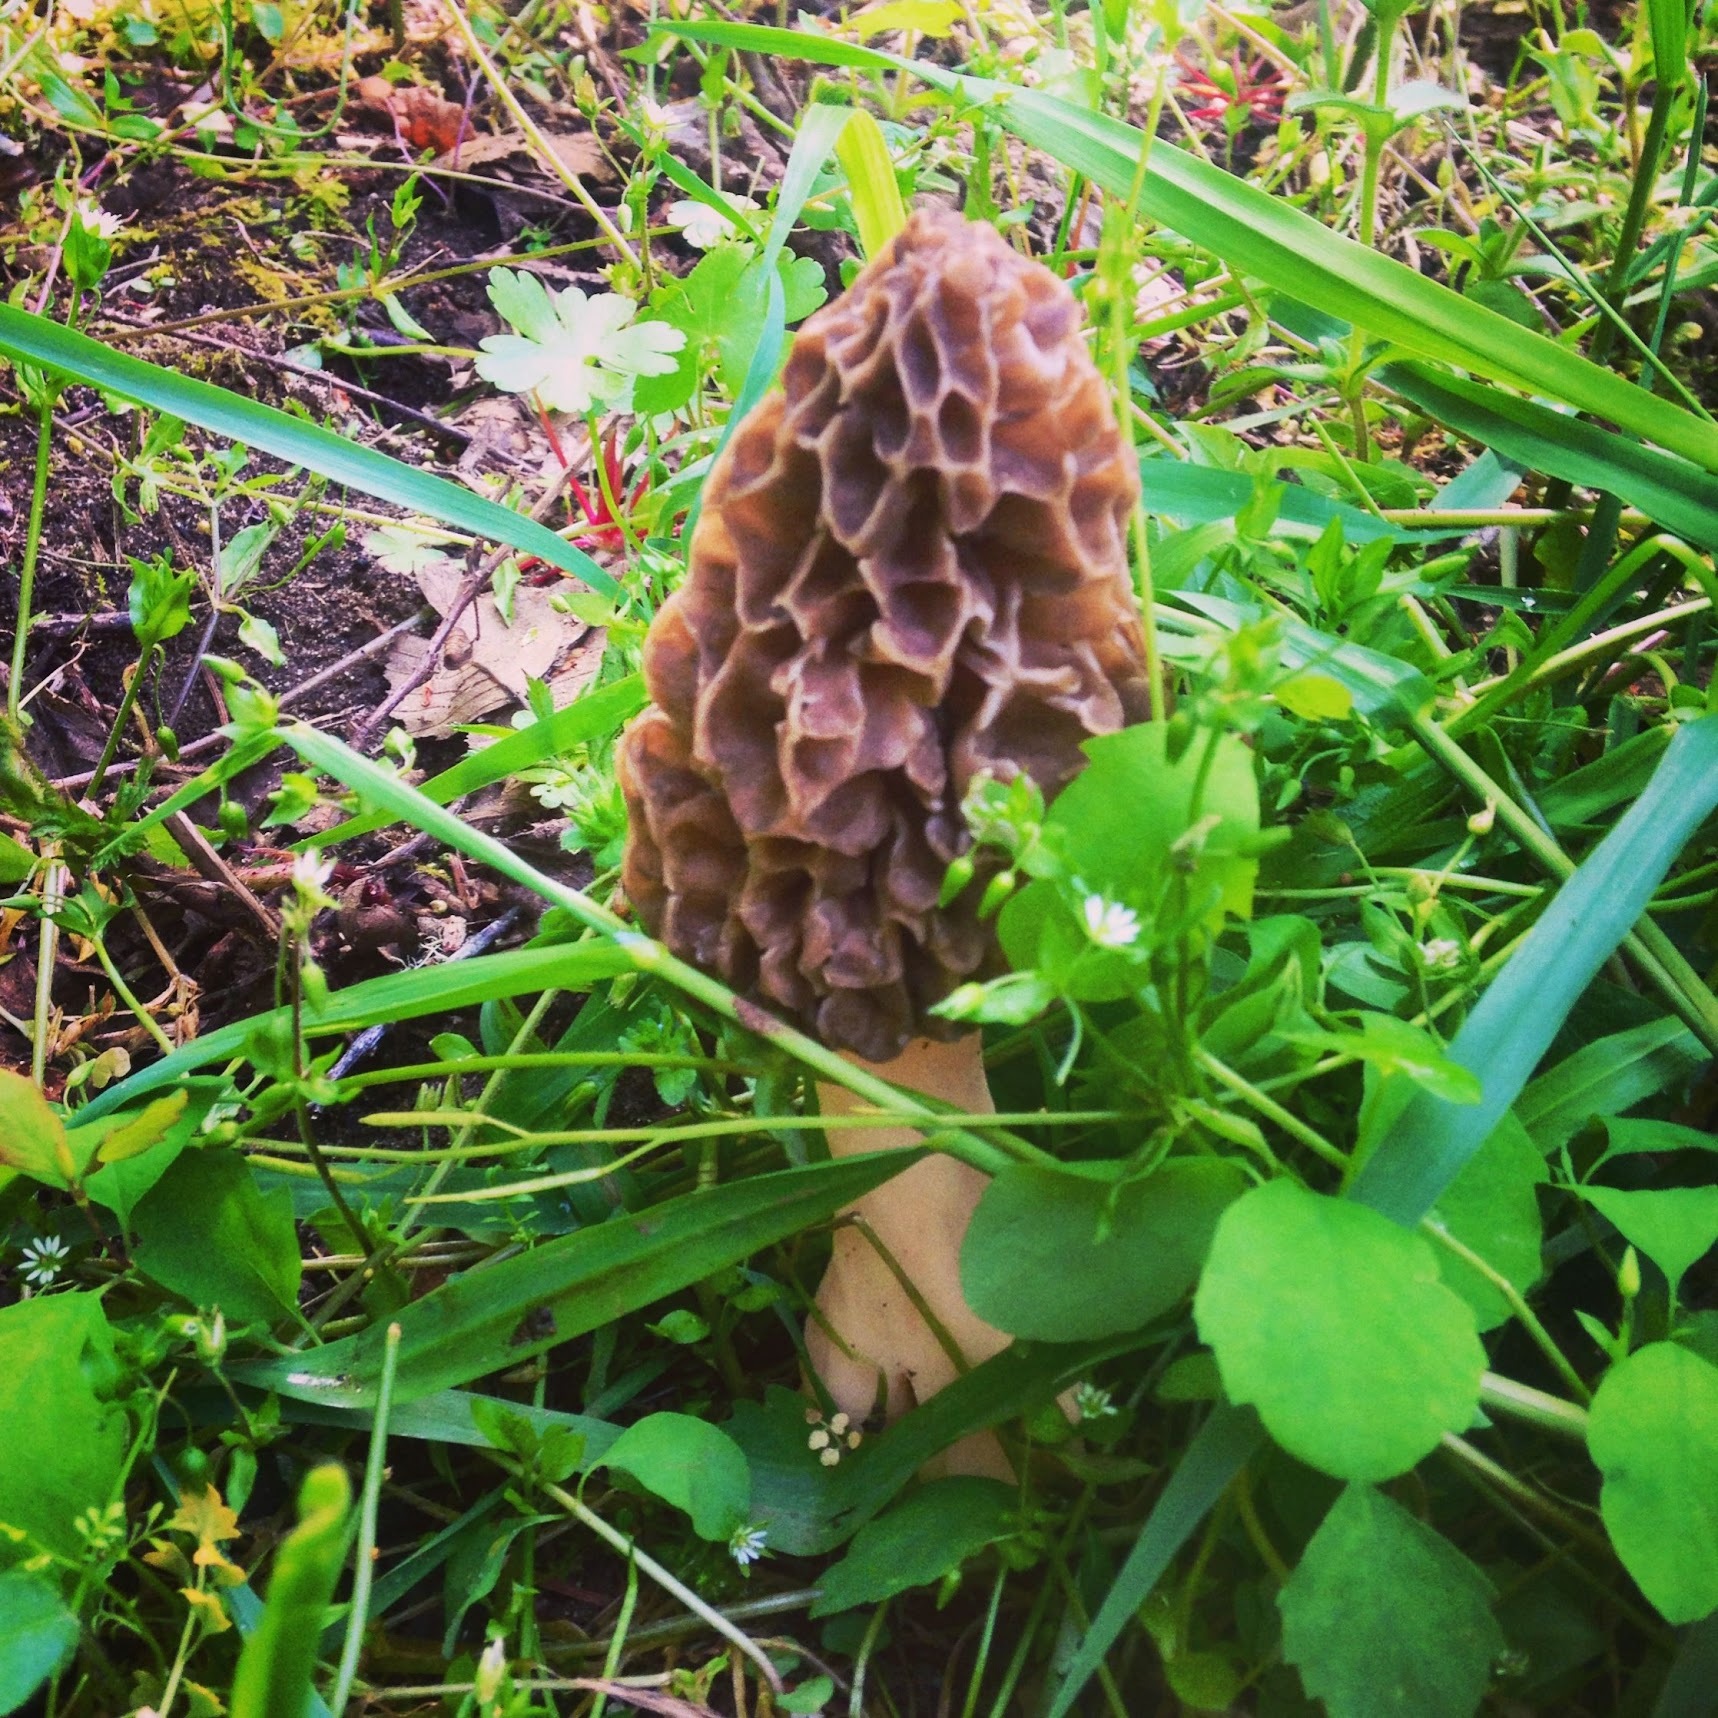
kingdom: Fungi
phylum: Ascomycota
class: Pezizomycetes
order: Pezizales
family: Morchellaceae
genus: Morchella
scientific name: Morchella americana
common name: White morel
